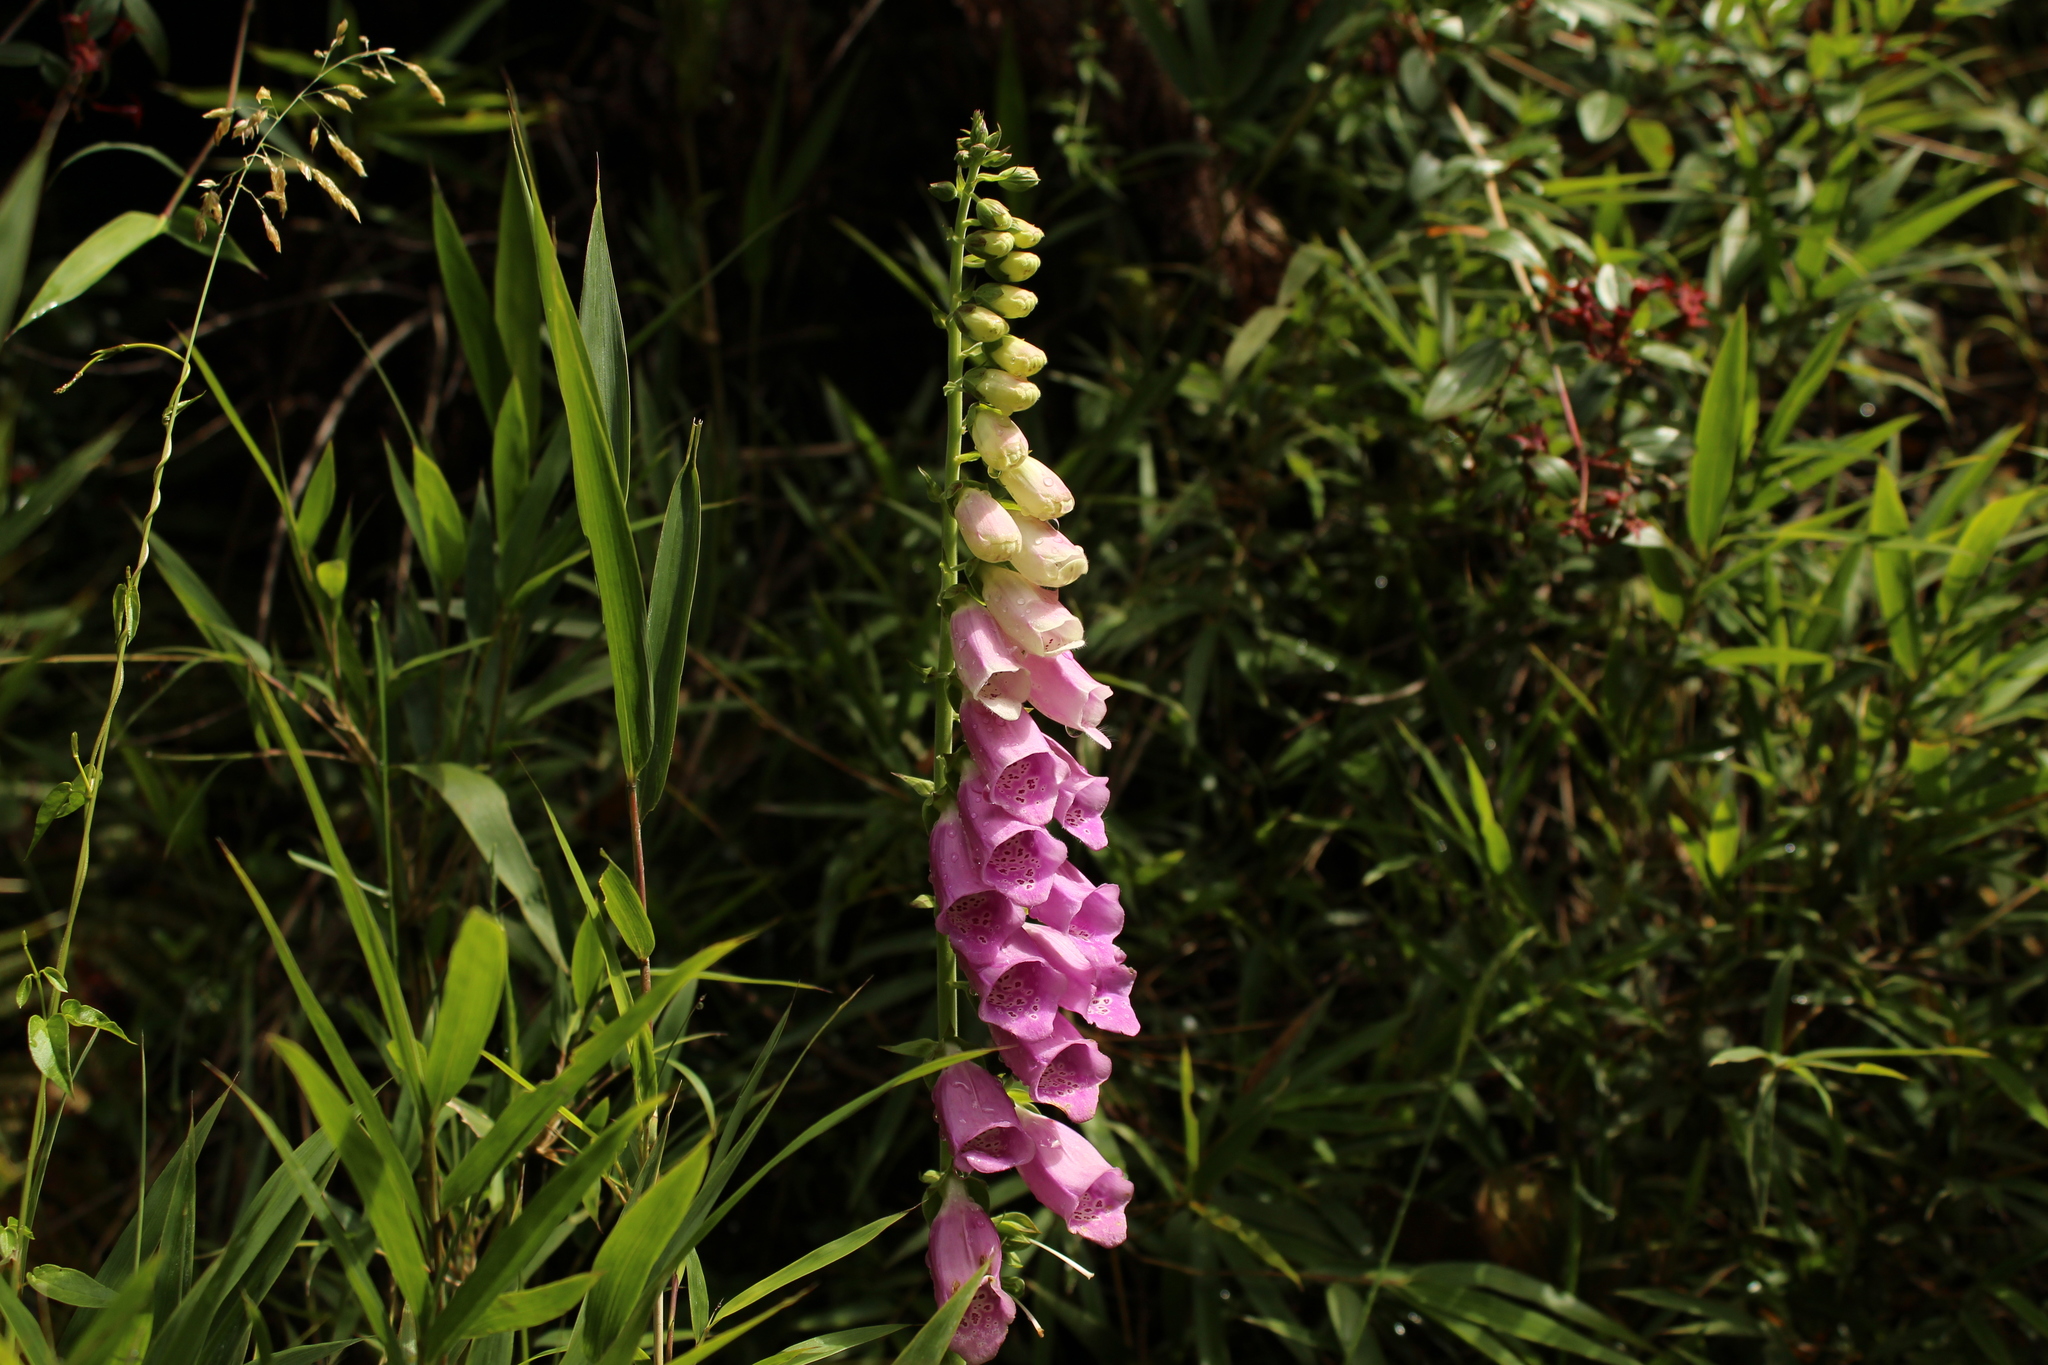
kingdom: Plantae
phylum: Tracheophyta
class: Magnoliopsida
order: Lamiales
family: Plantaginaceae
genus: Digitalis
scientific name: Digitalis purpurea
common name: Foxglove
